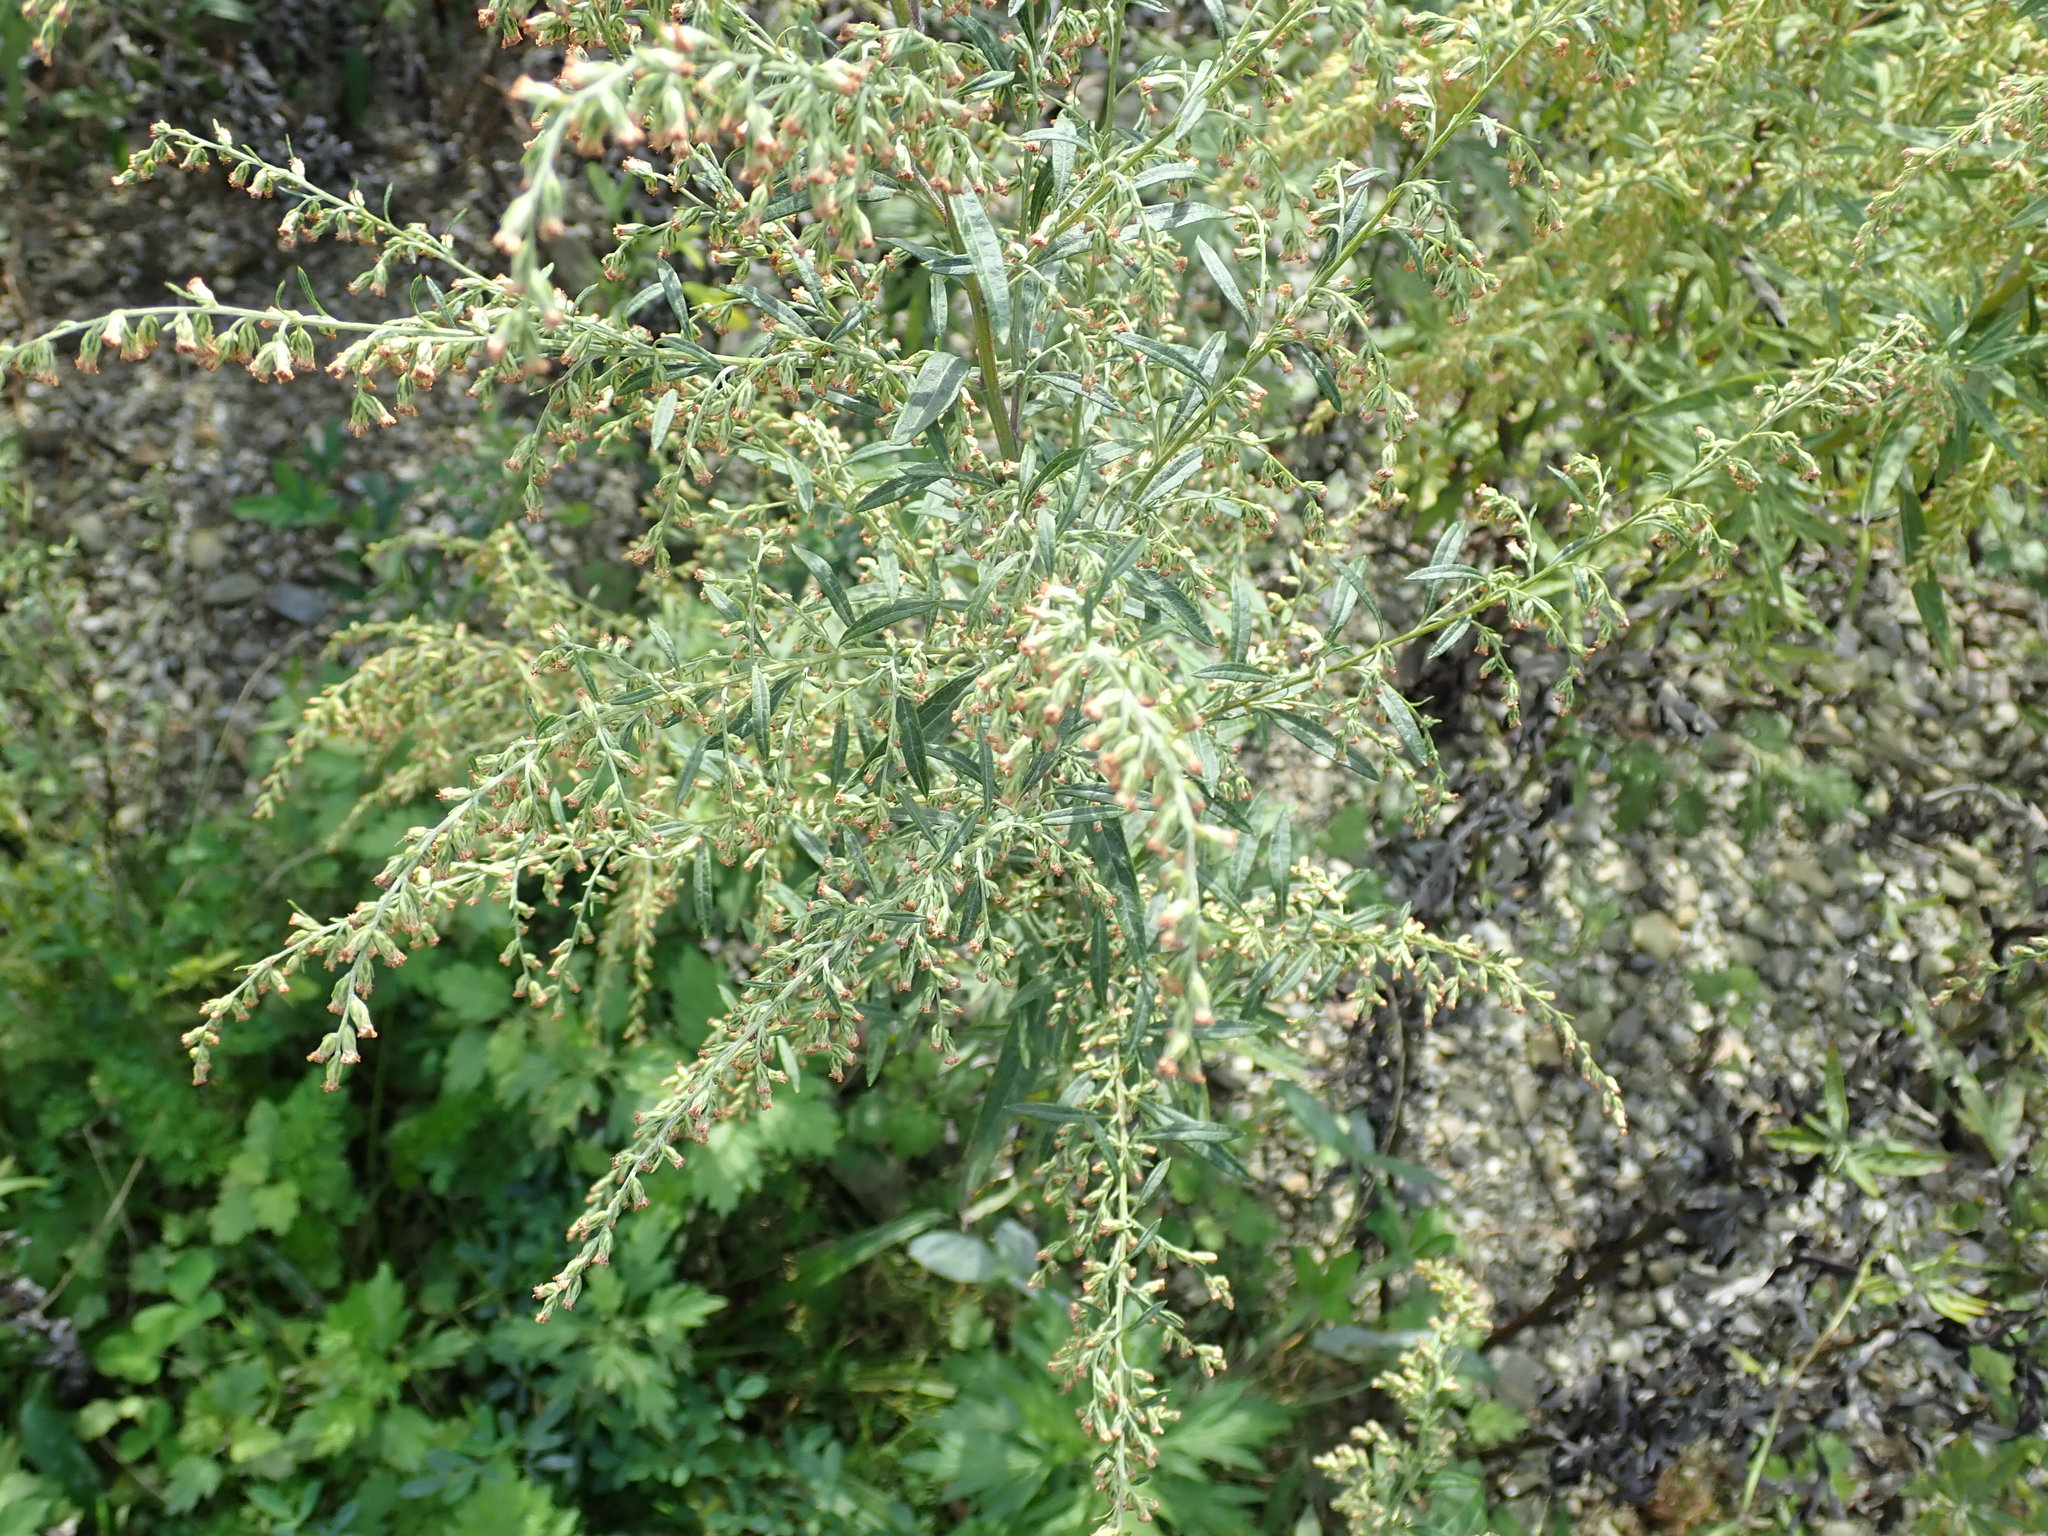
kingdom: Plantae
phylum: Tracheophyta
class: Magnoliopsida
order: Asterales
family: Asteraceae
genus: Artemisia
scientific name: Artemisia vulgaris
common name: Mugwort
